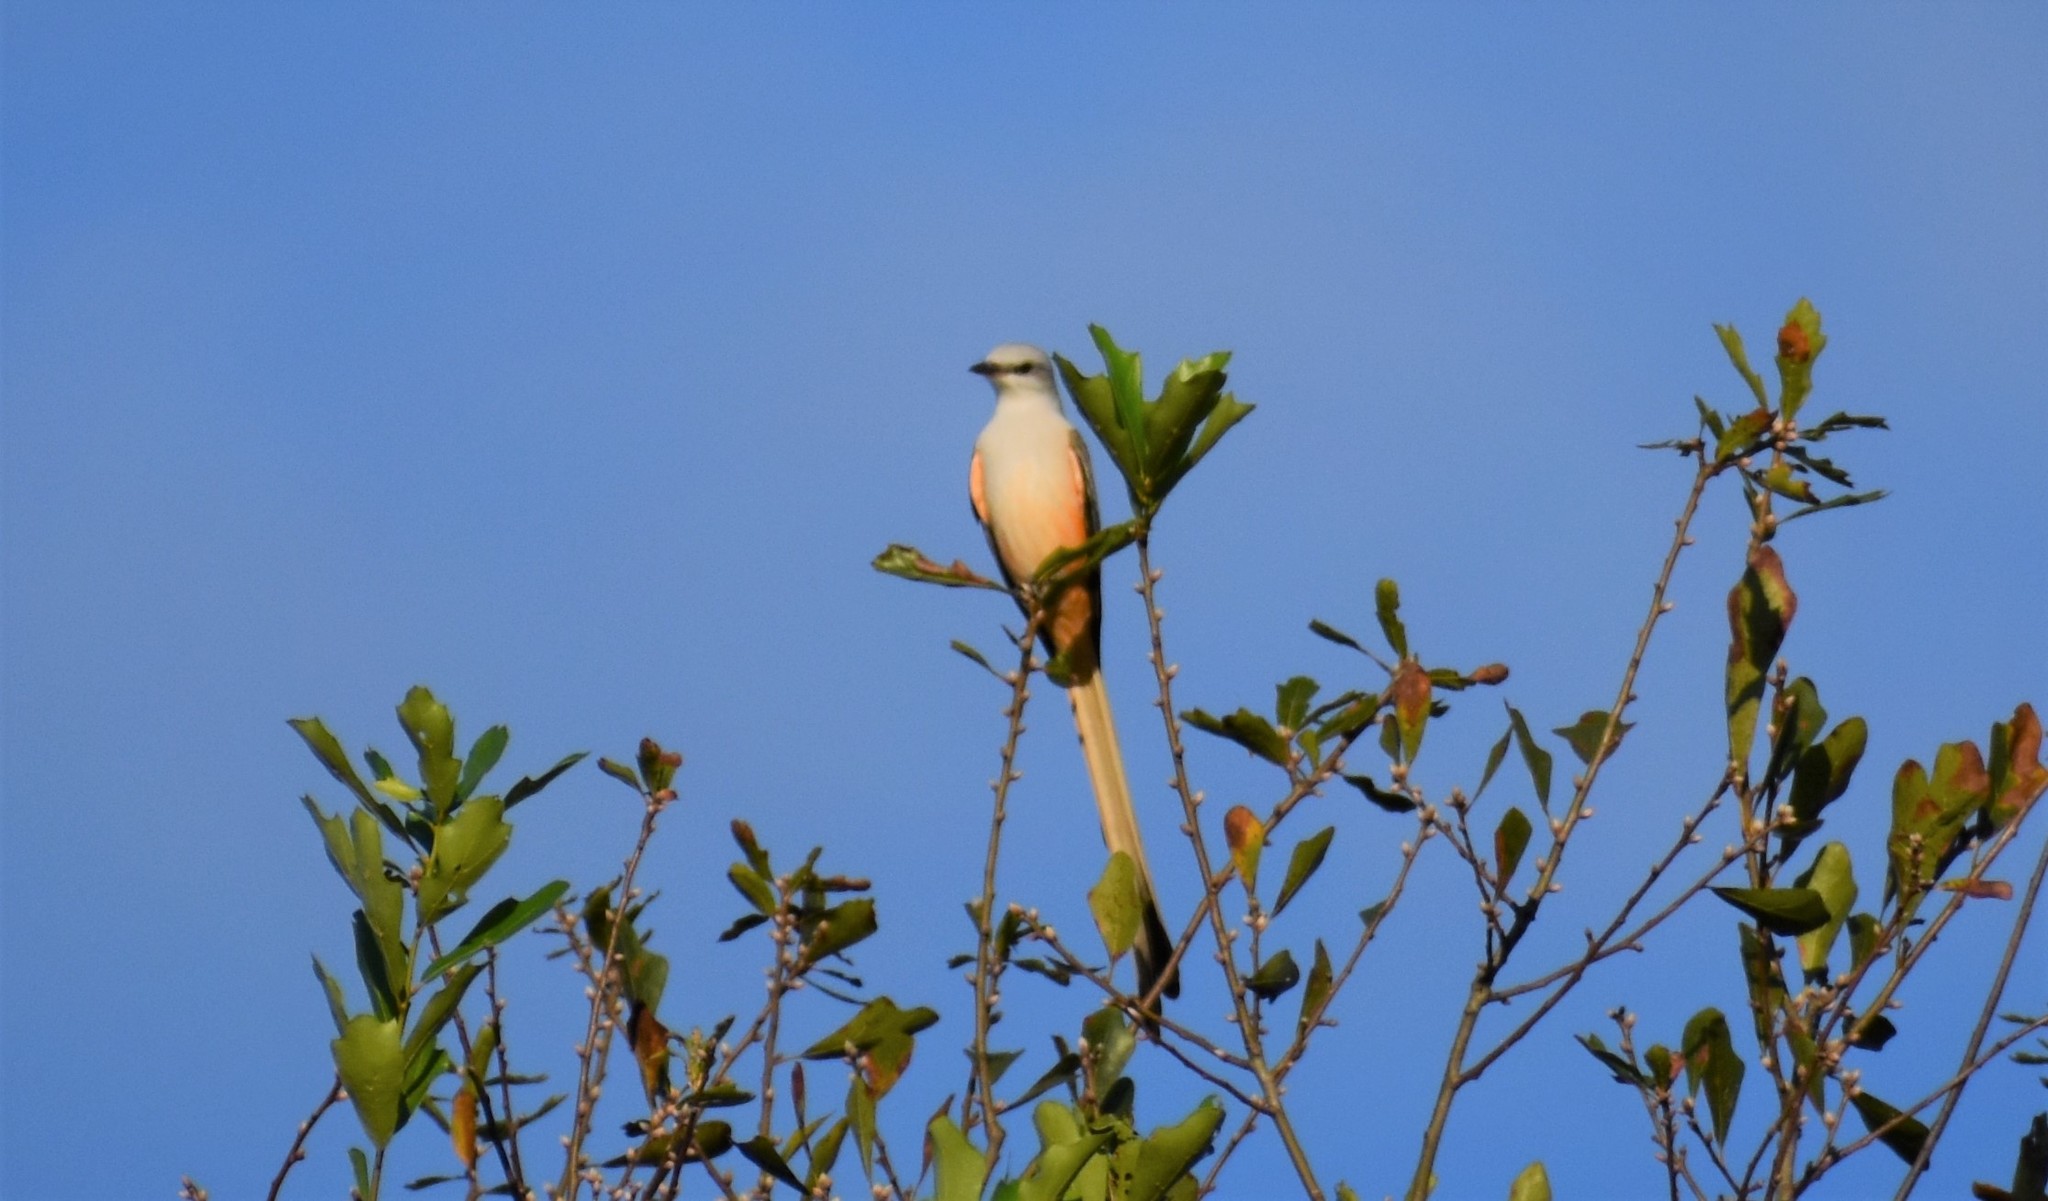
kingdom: Animalia
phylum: Chordata
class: Aves
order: Passeriformes
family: Tyrannidae
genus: Tyrannus
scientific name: Tyrannus forficatus
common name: Scissor-tailed flycatcher
